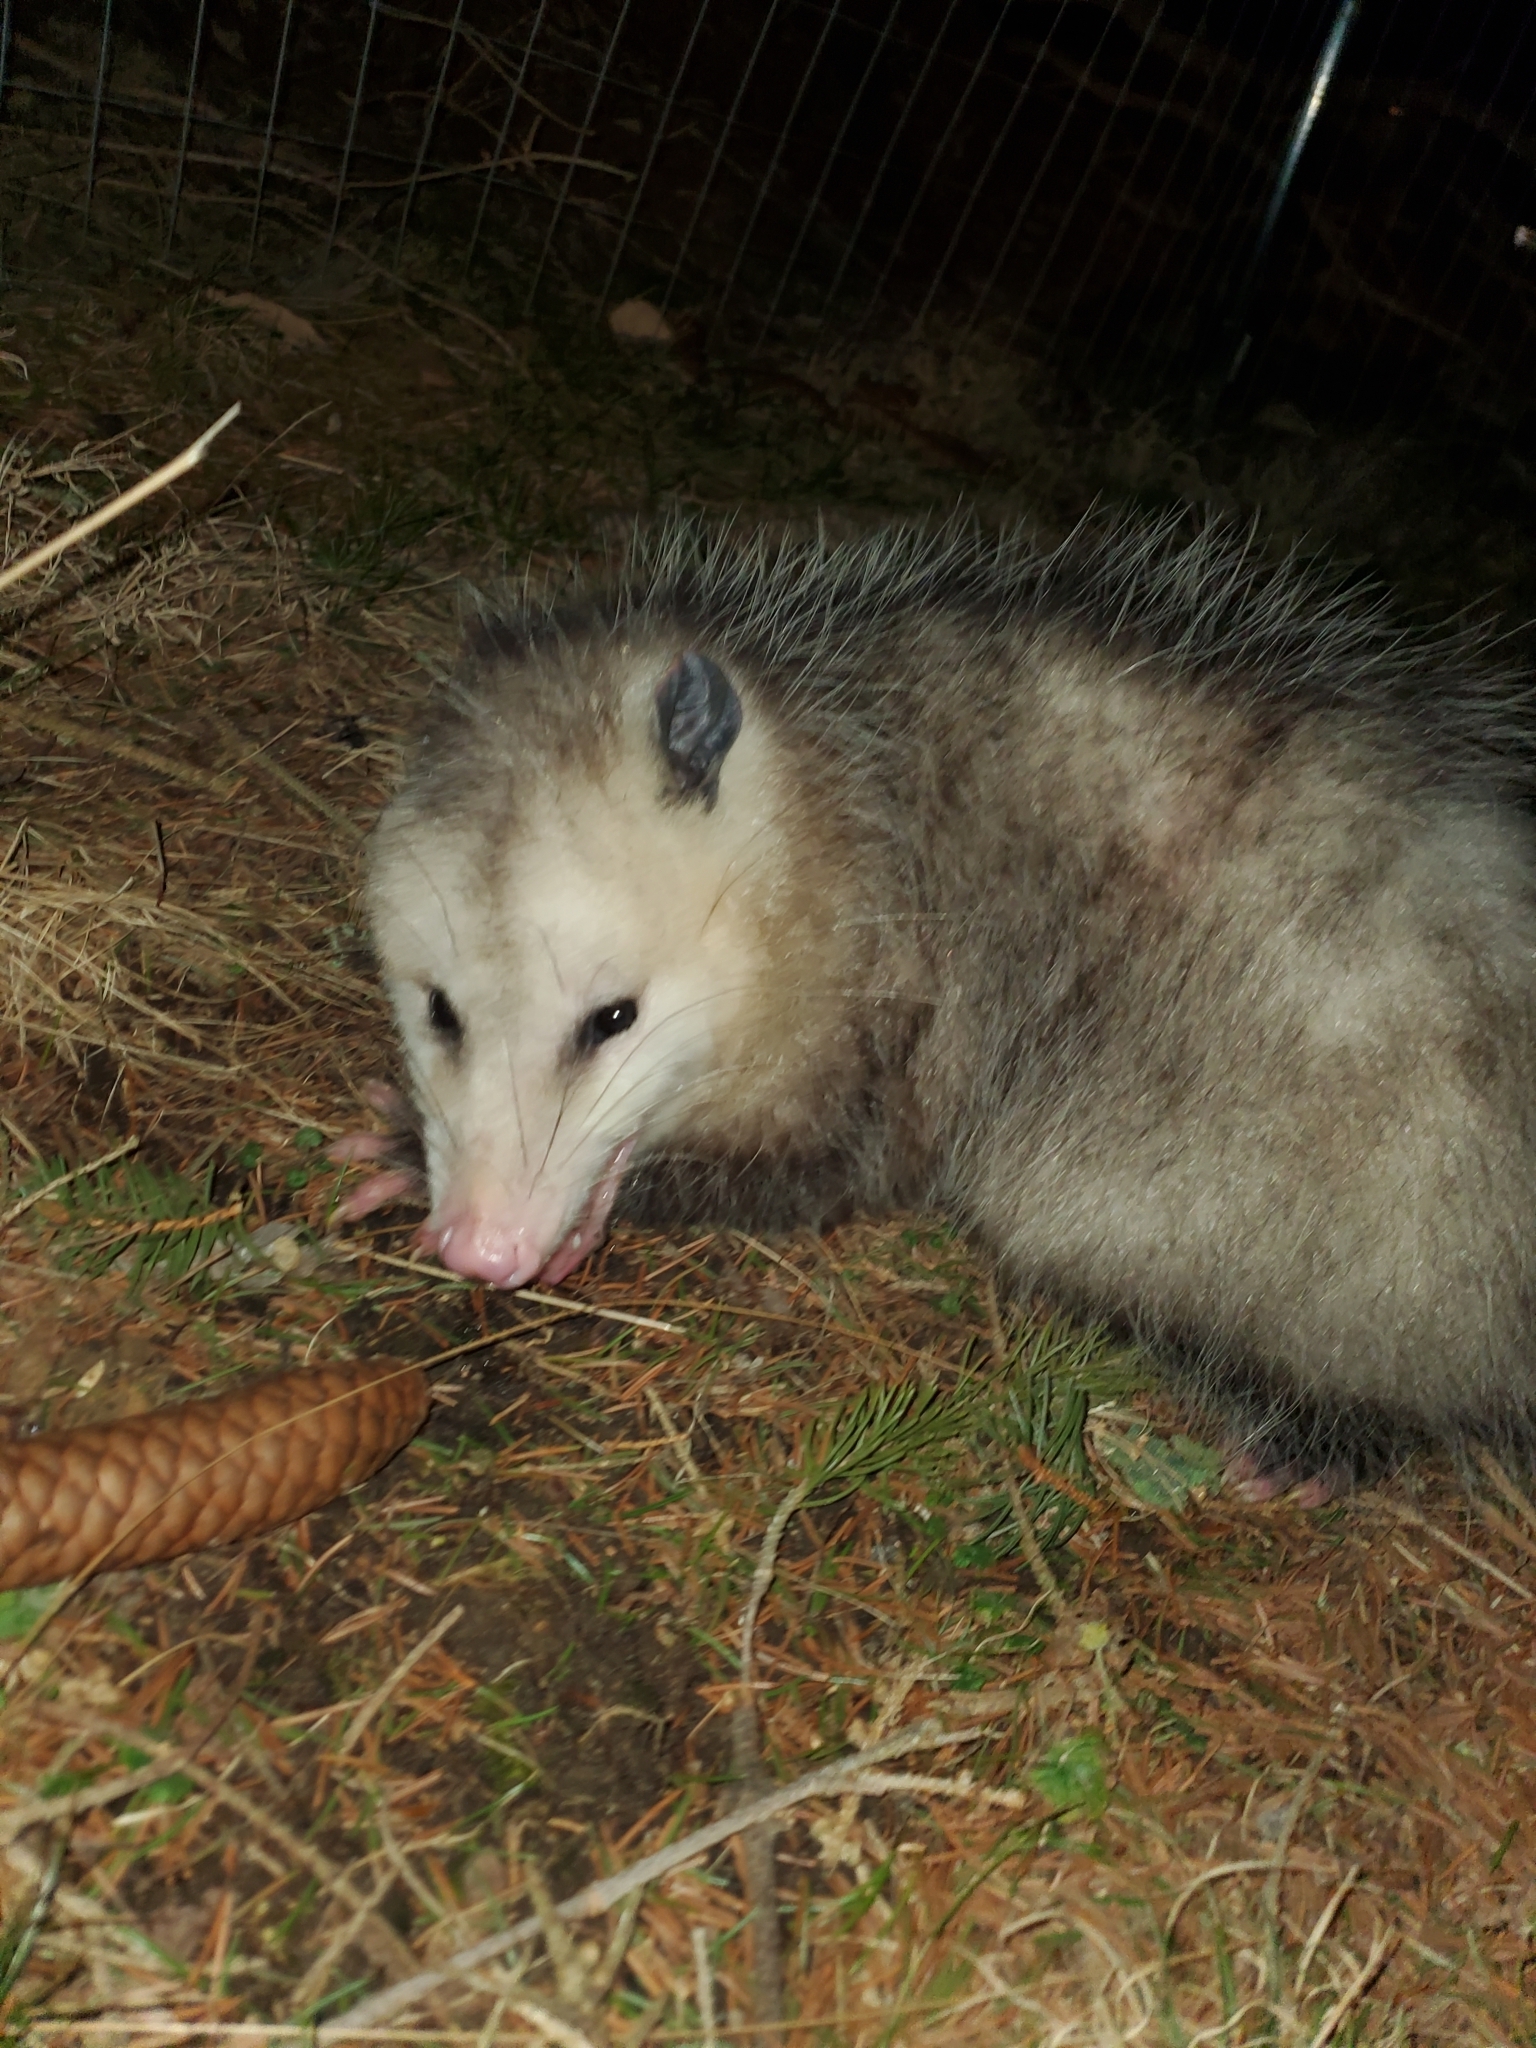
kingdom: Animalia
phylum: Chordata
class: Mammalia
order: Didelphimorphia
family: Didelphidae
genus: Didelphis
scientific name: Didelphis virginiana
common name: Virginia opossum
